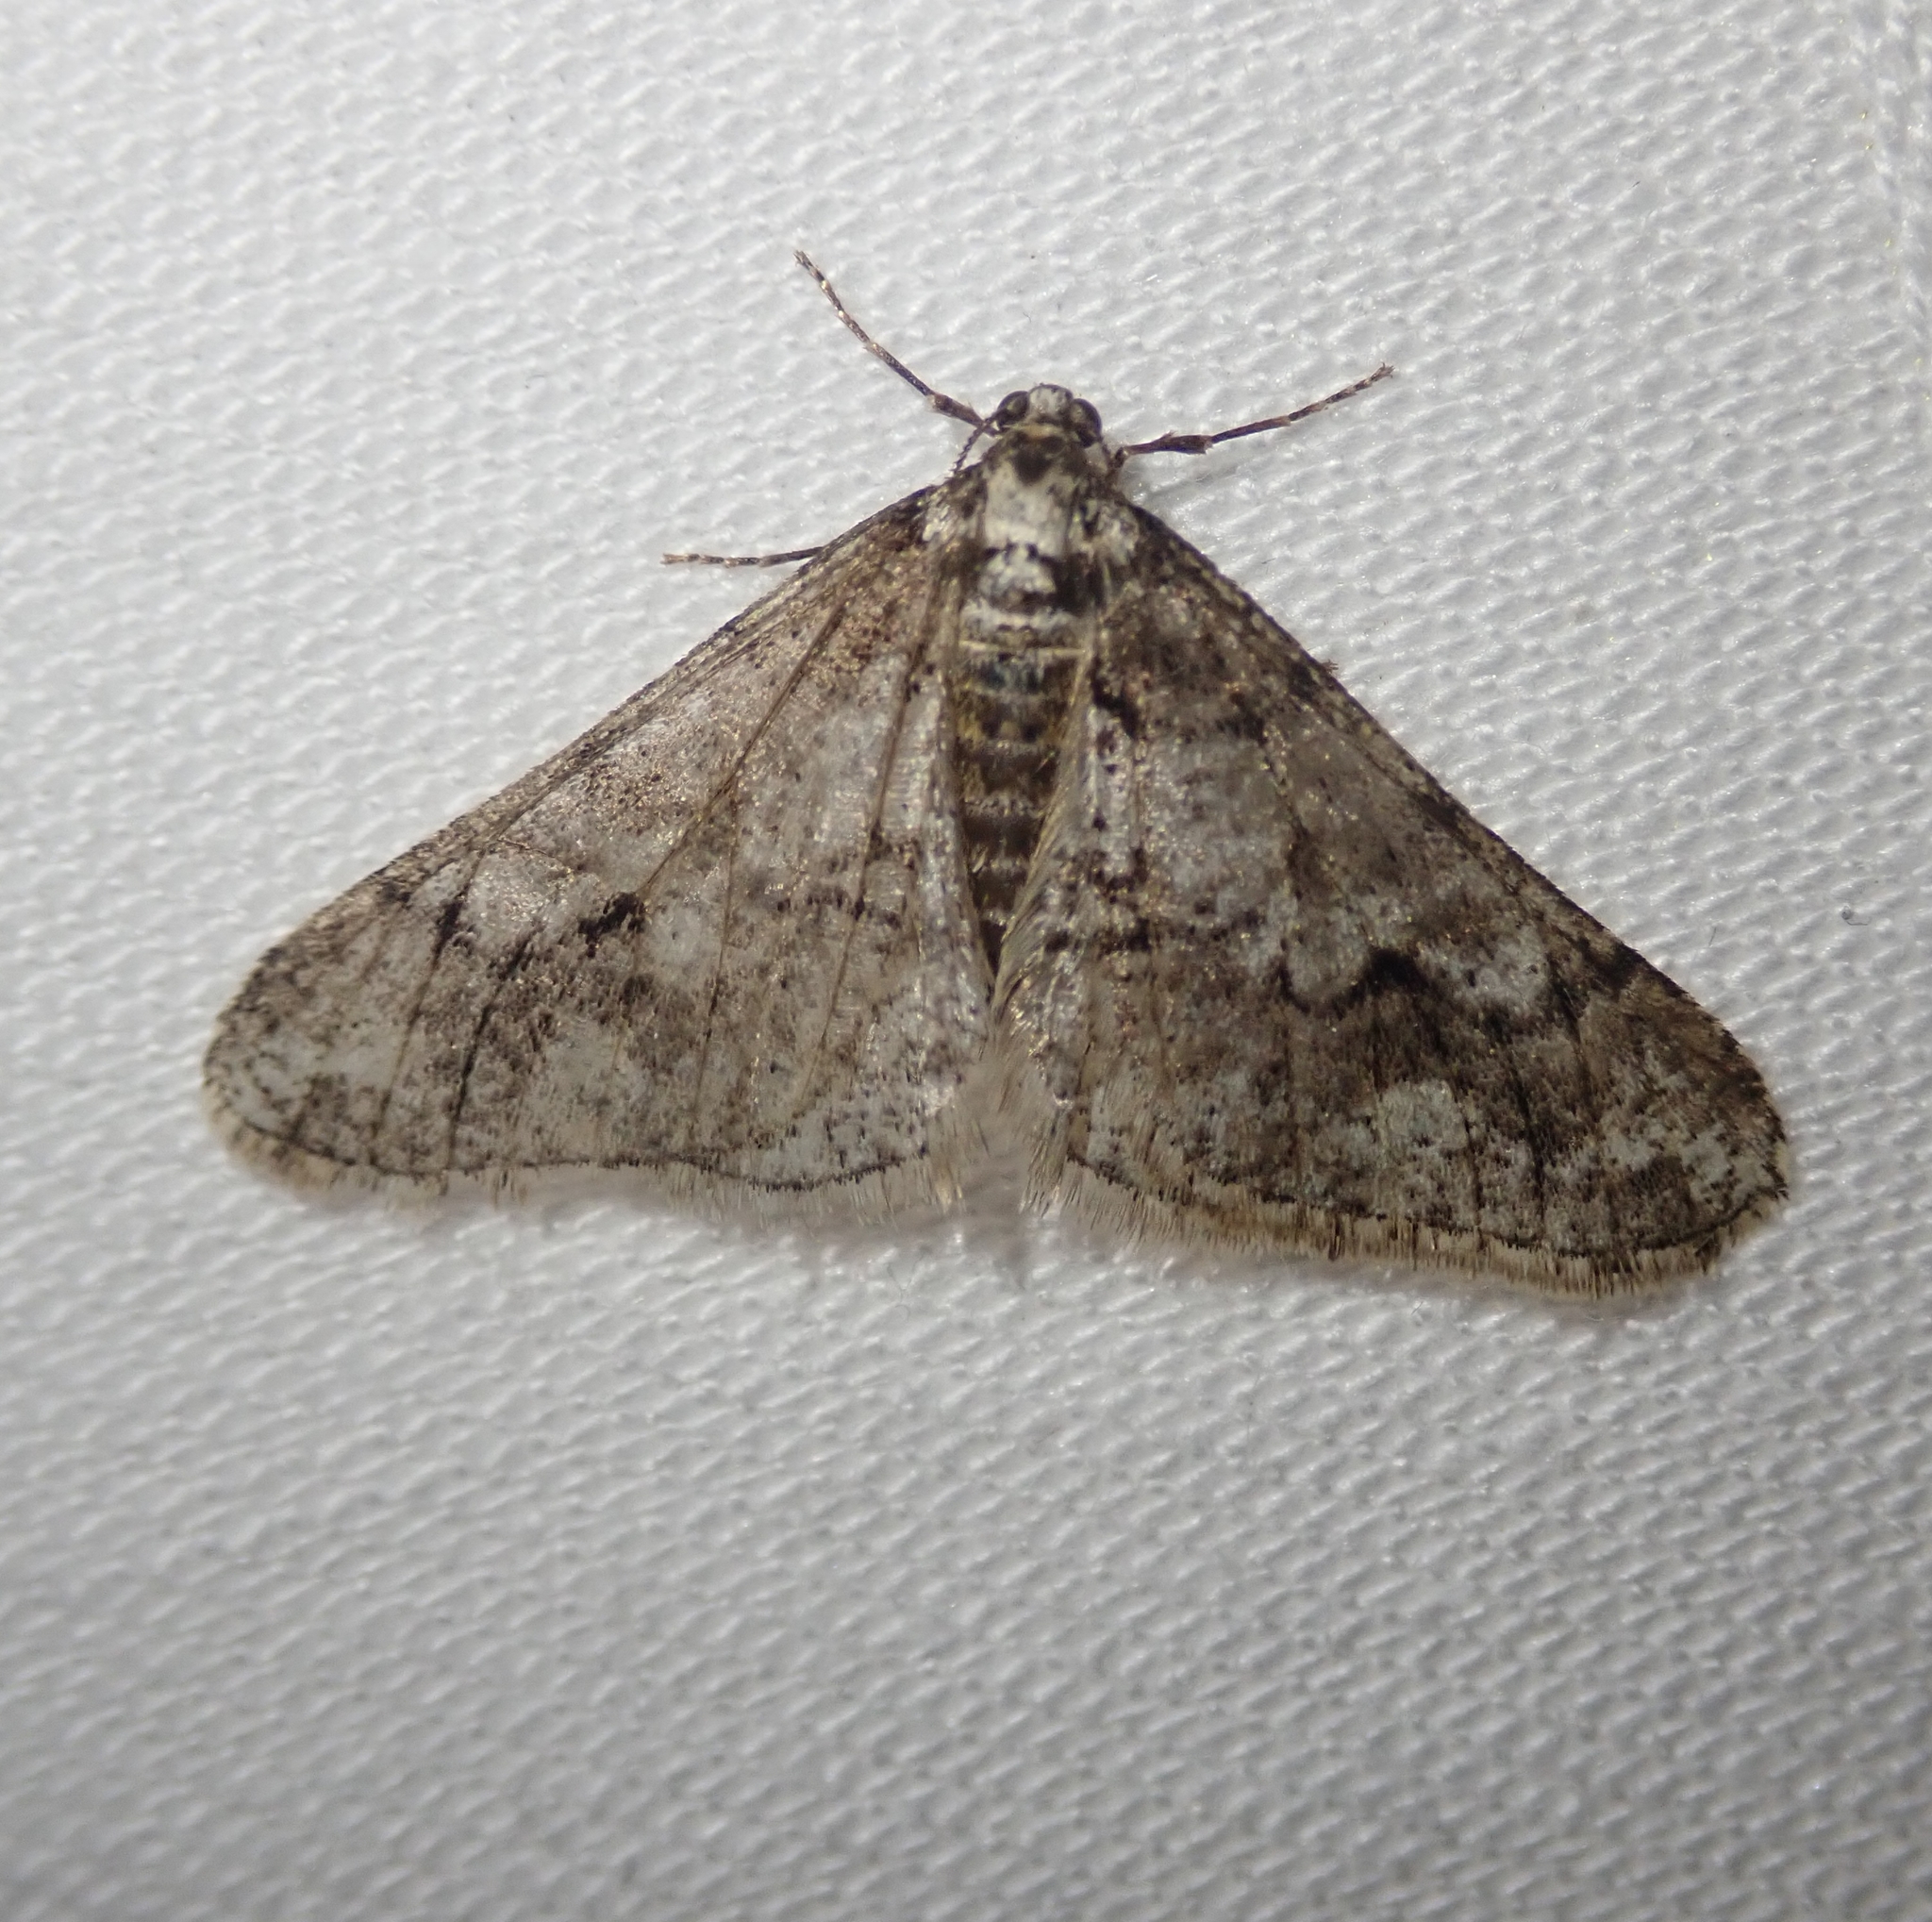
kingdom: Animalia
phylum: Arthropoda
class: Insecta
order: Lepidoptera
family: Geometridae
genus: Agriopis
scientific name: Agriopis leucophaearia
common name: Spring usher
